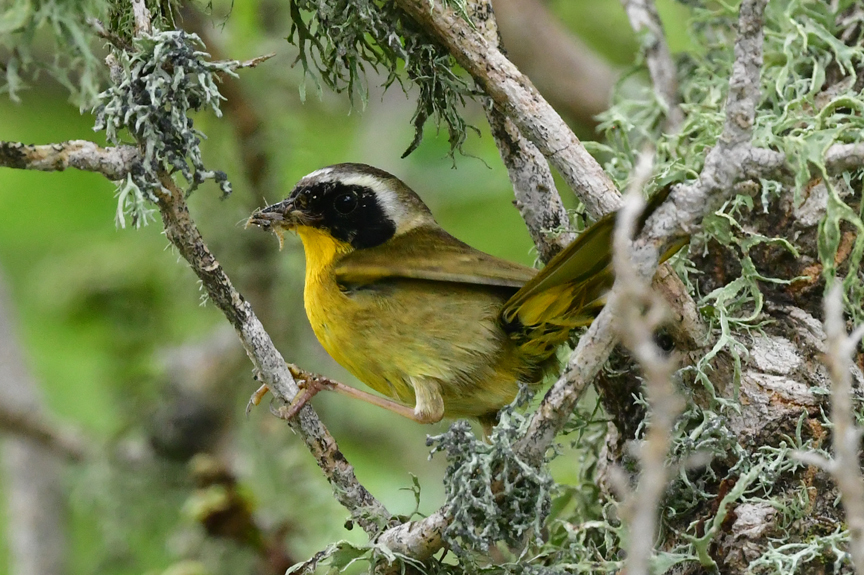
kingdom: Animalia
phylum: Chordata
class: Aves
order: Passeriformes
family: Parulidae
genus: Geothlypis
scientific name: Geothlypis trichas
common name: Common yellowthroat
